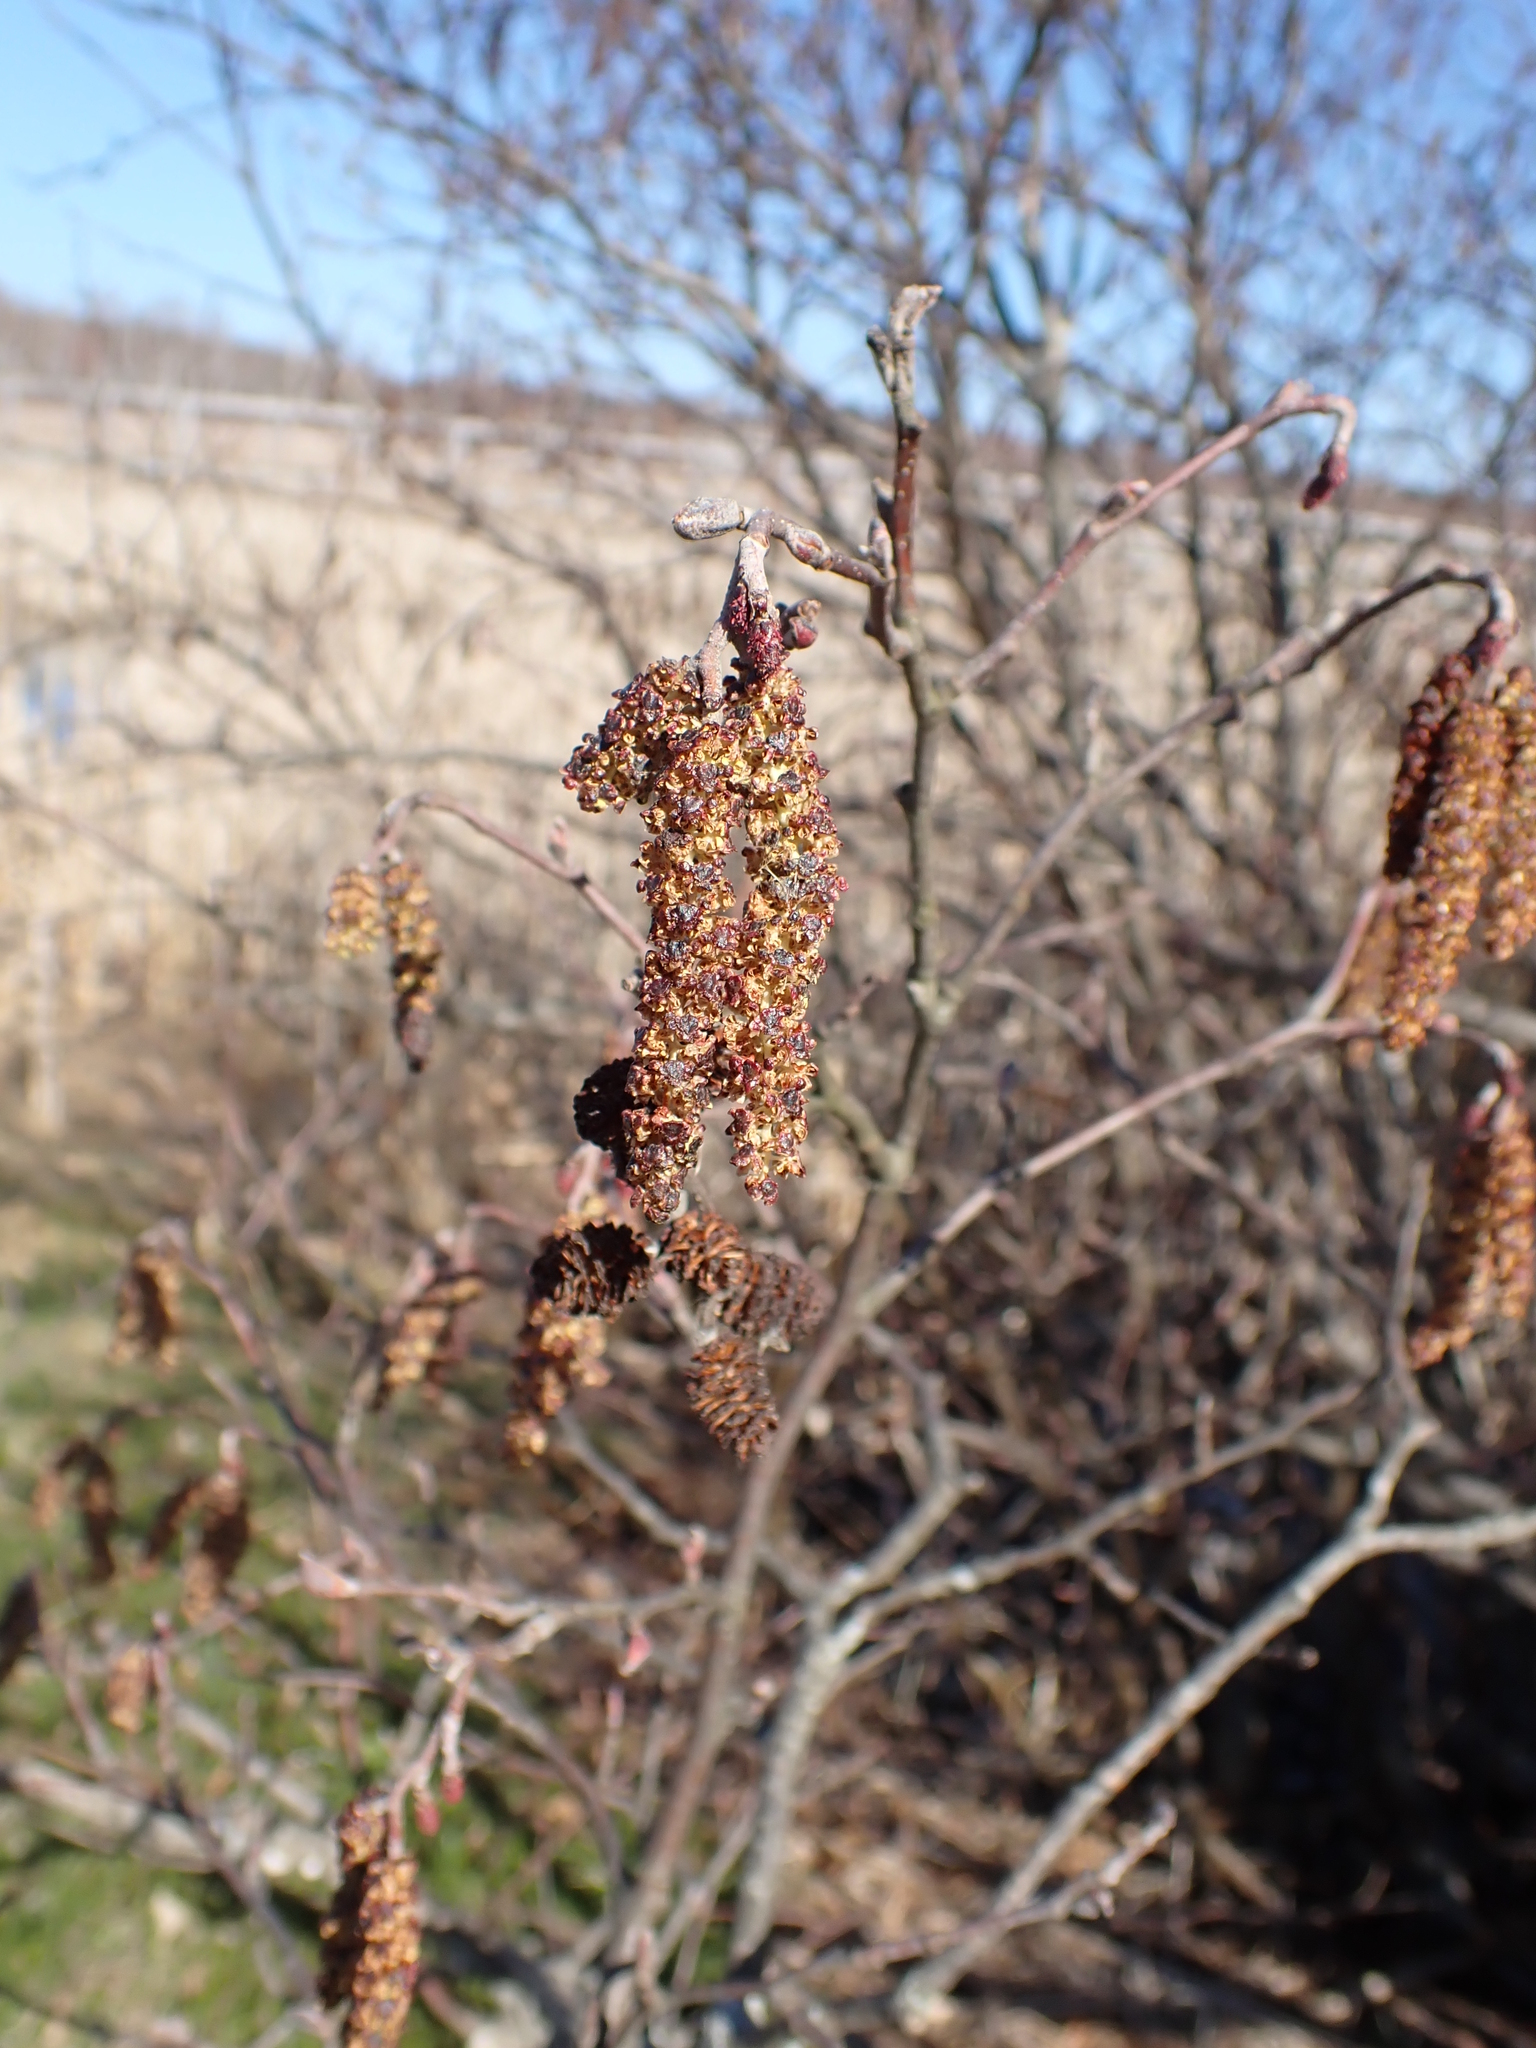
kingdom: Plantae
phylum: Tracheophyta
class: Magnoliopsida
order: Fagales
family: Betulaceae
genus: Alnus
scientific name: Alnus incana
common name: Grey alder
